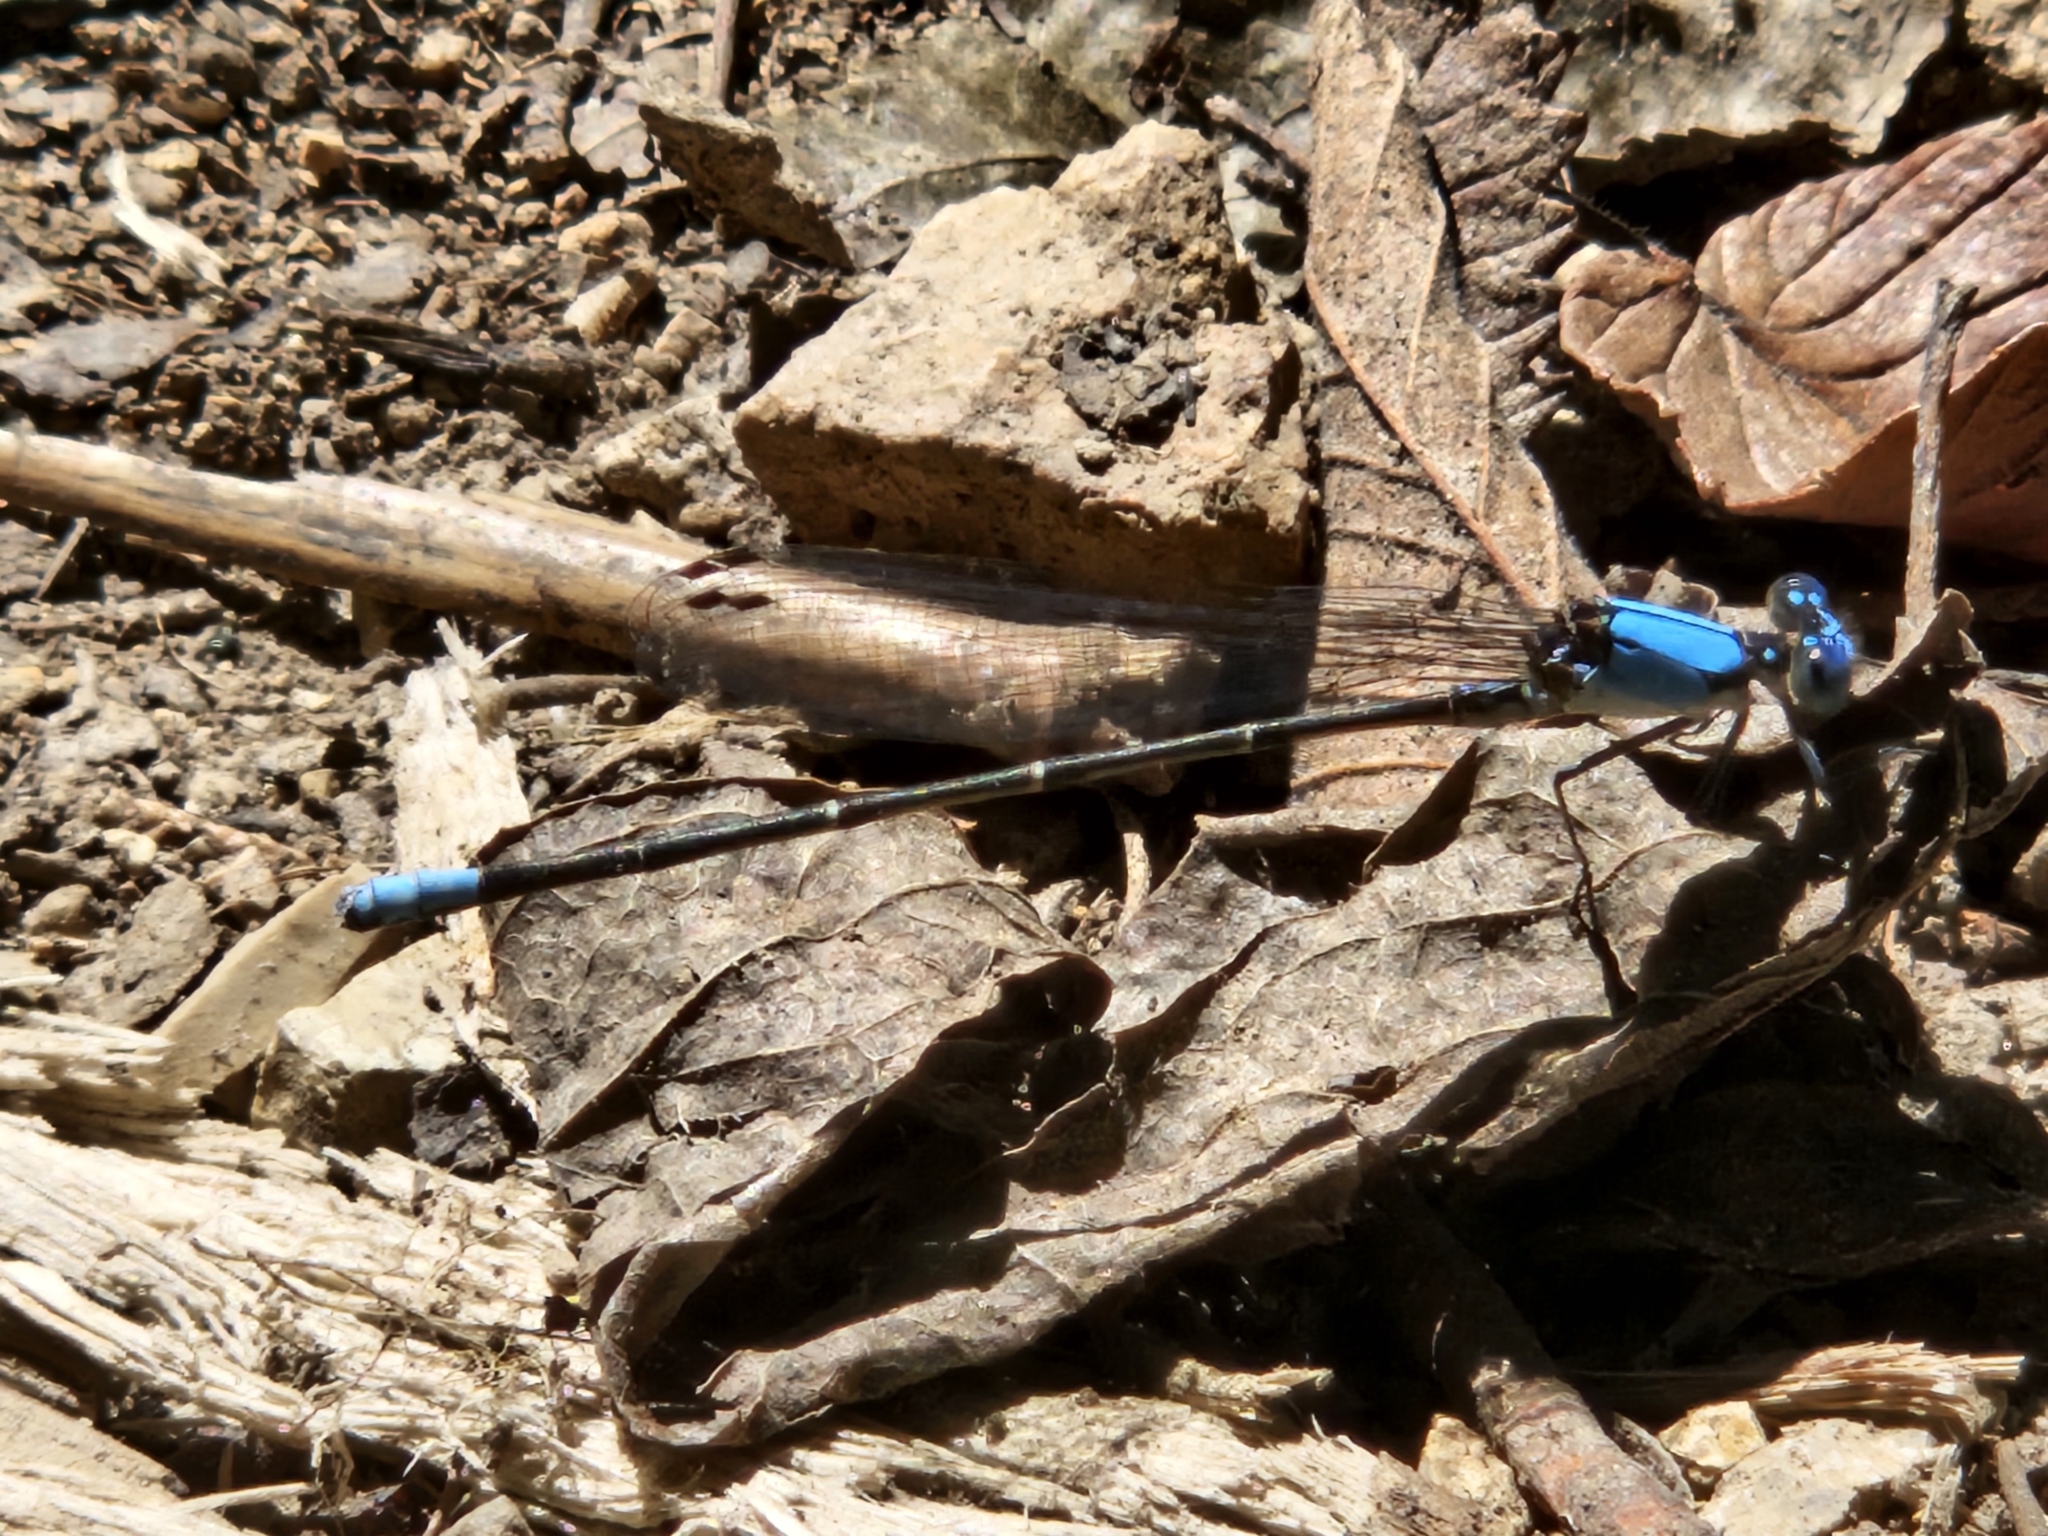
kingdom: Animalia
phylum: Arthropoda
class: Insecta
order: Odonata
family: Coenagrionidae
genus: Argia
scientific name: Argia apicalis
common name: Blue-fronted dancer
